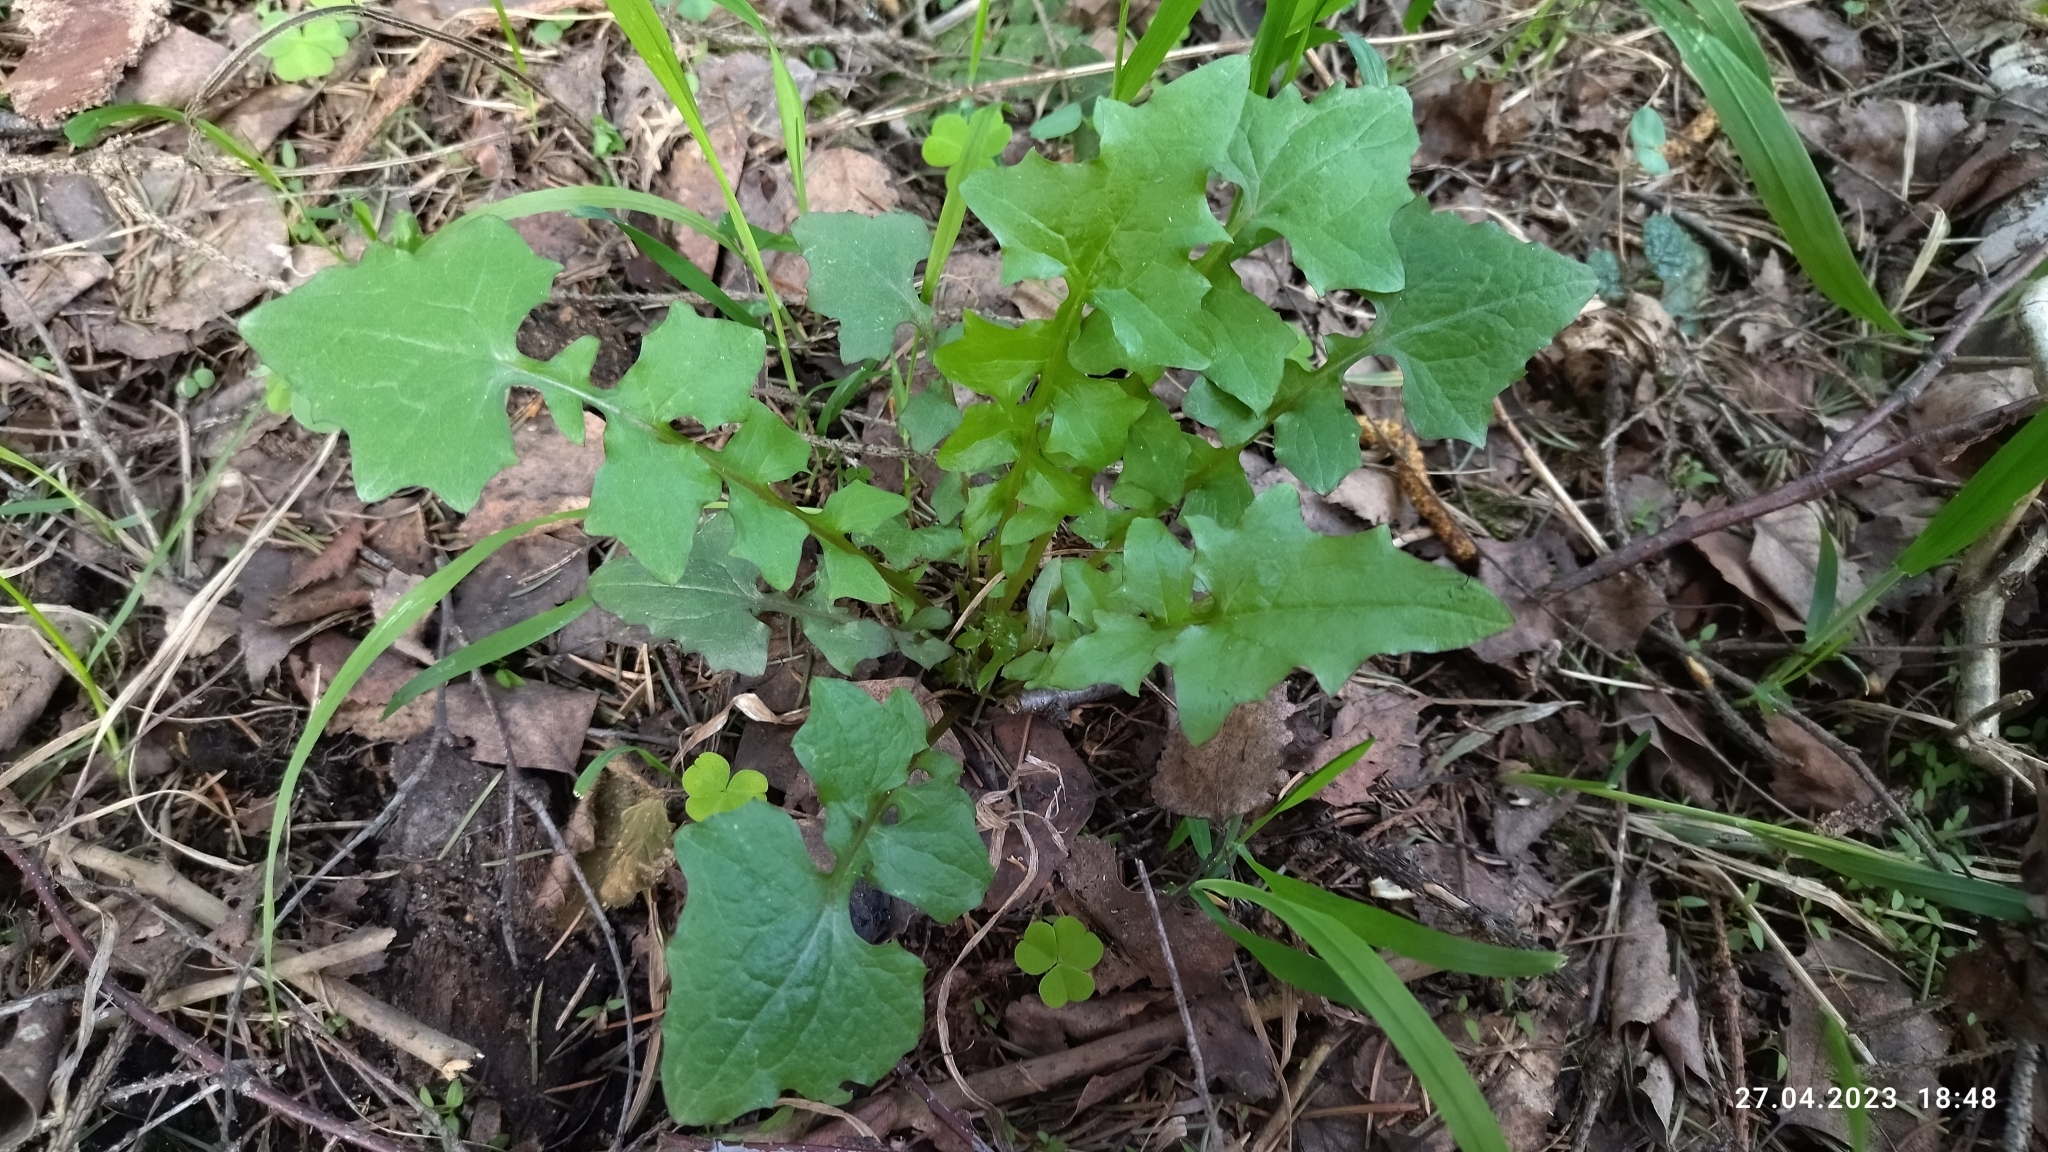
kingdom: Plantae
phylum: Tracheophyta
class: Magnoliopsida
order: Asterales
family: Asteraceae
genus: Mycelis
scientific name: Mycelis muralis
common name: Wall lettuce
